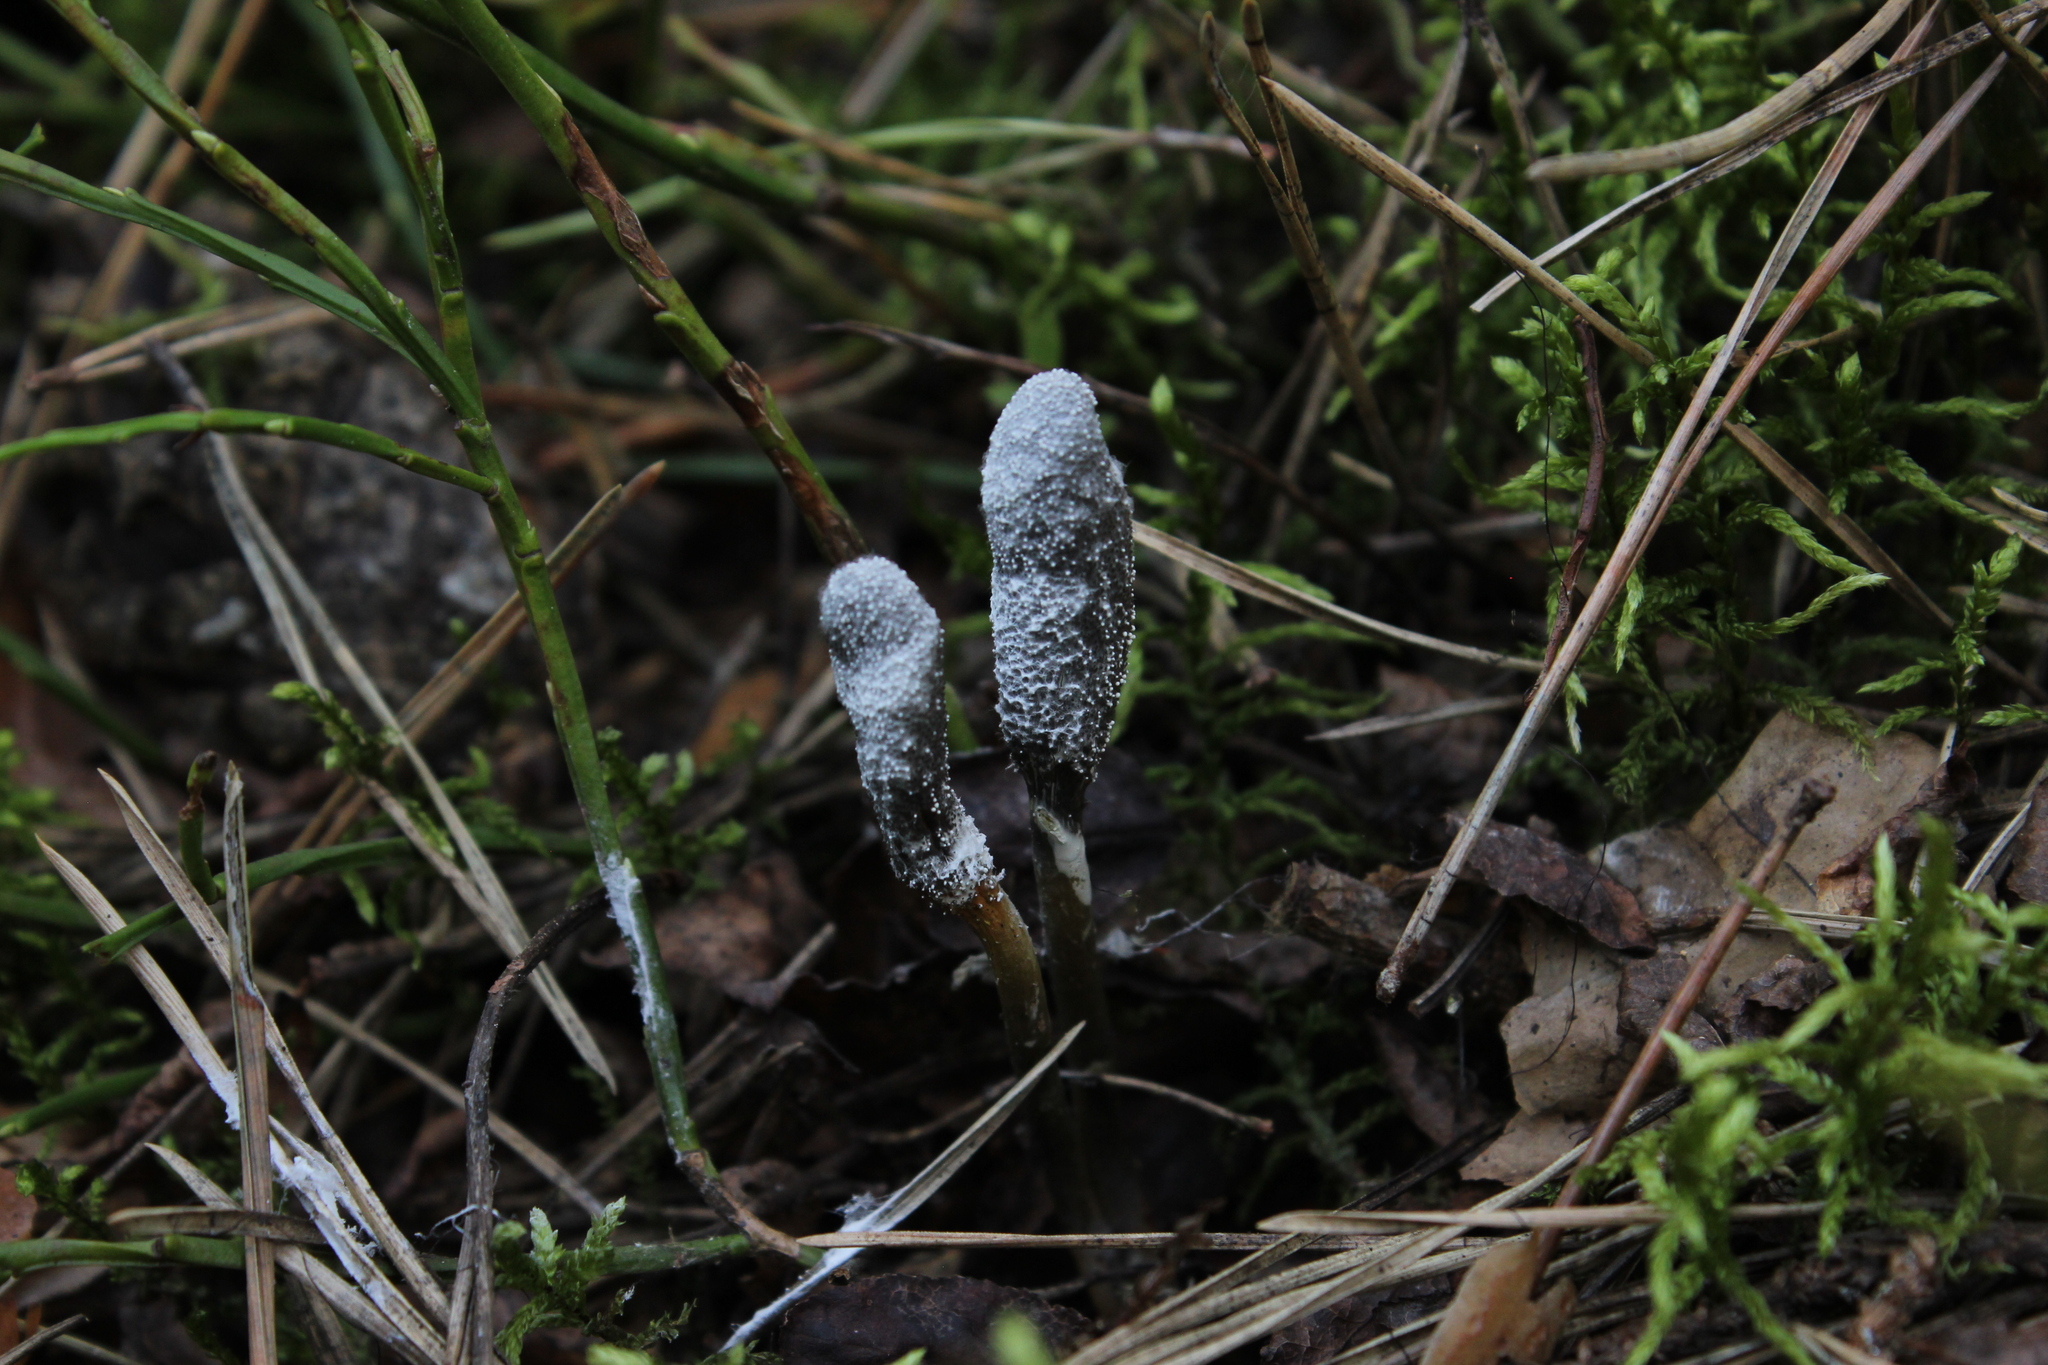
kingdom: Fungi
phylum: Ascomycota
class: Sordariomycetes
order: Hypocreales
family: Ophiocordycipitaceae
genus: Tolypocladium
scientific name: Tolypocladium ophioglossoides
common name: Snaketongue truffleclub
